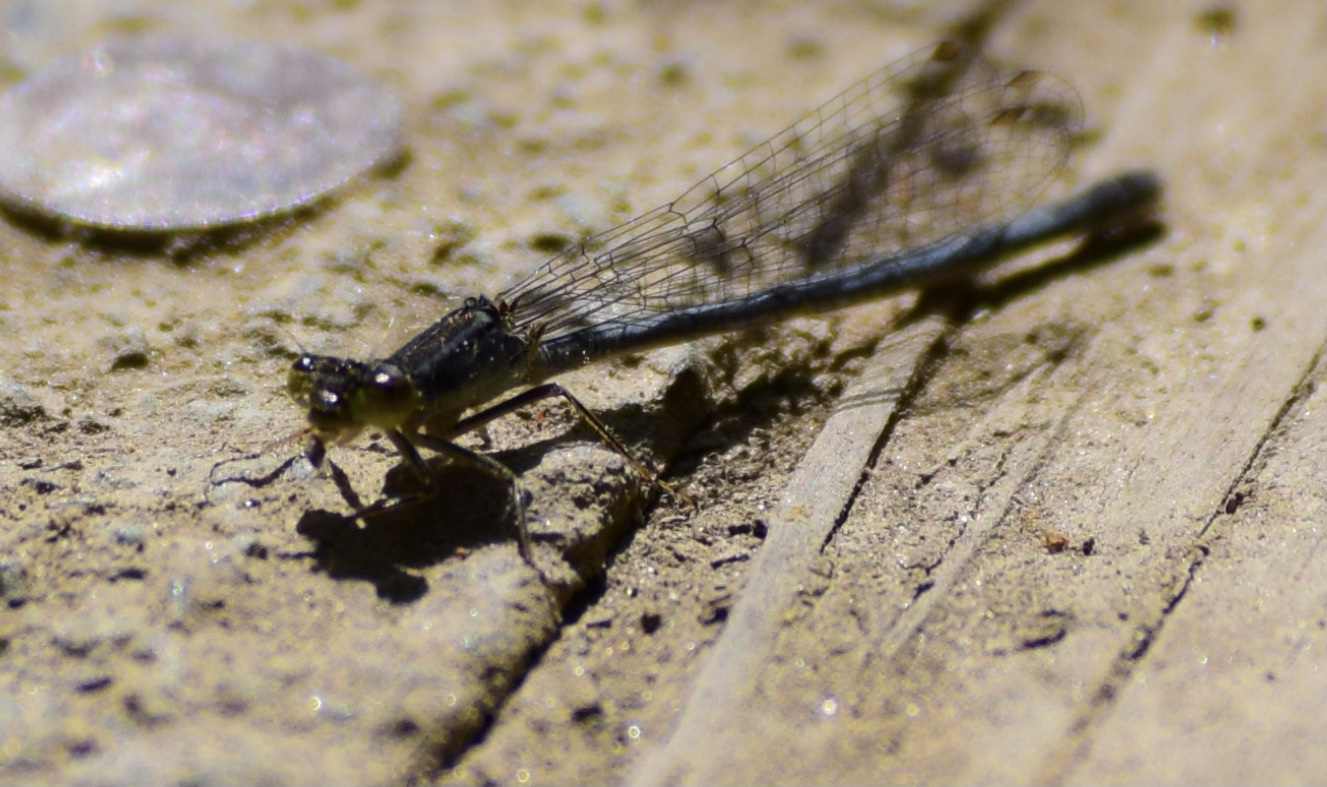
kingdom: Animalia
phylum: Arthropoda
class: Insecta
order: Odonata
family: Coenagrionidae
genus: Ischnura
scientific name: Ischnura verticalis
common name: Eastern forktail
